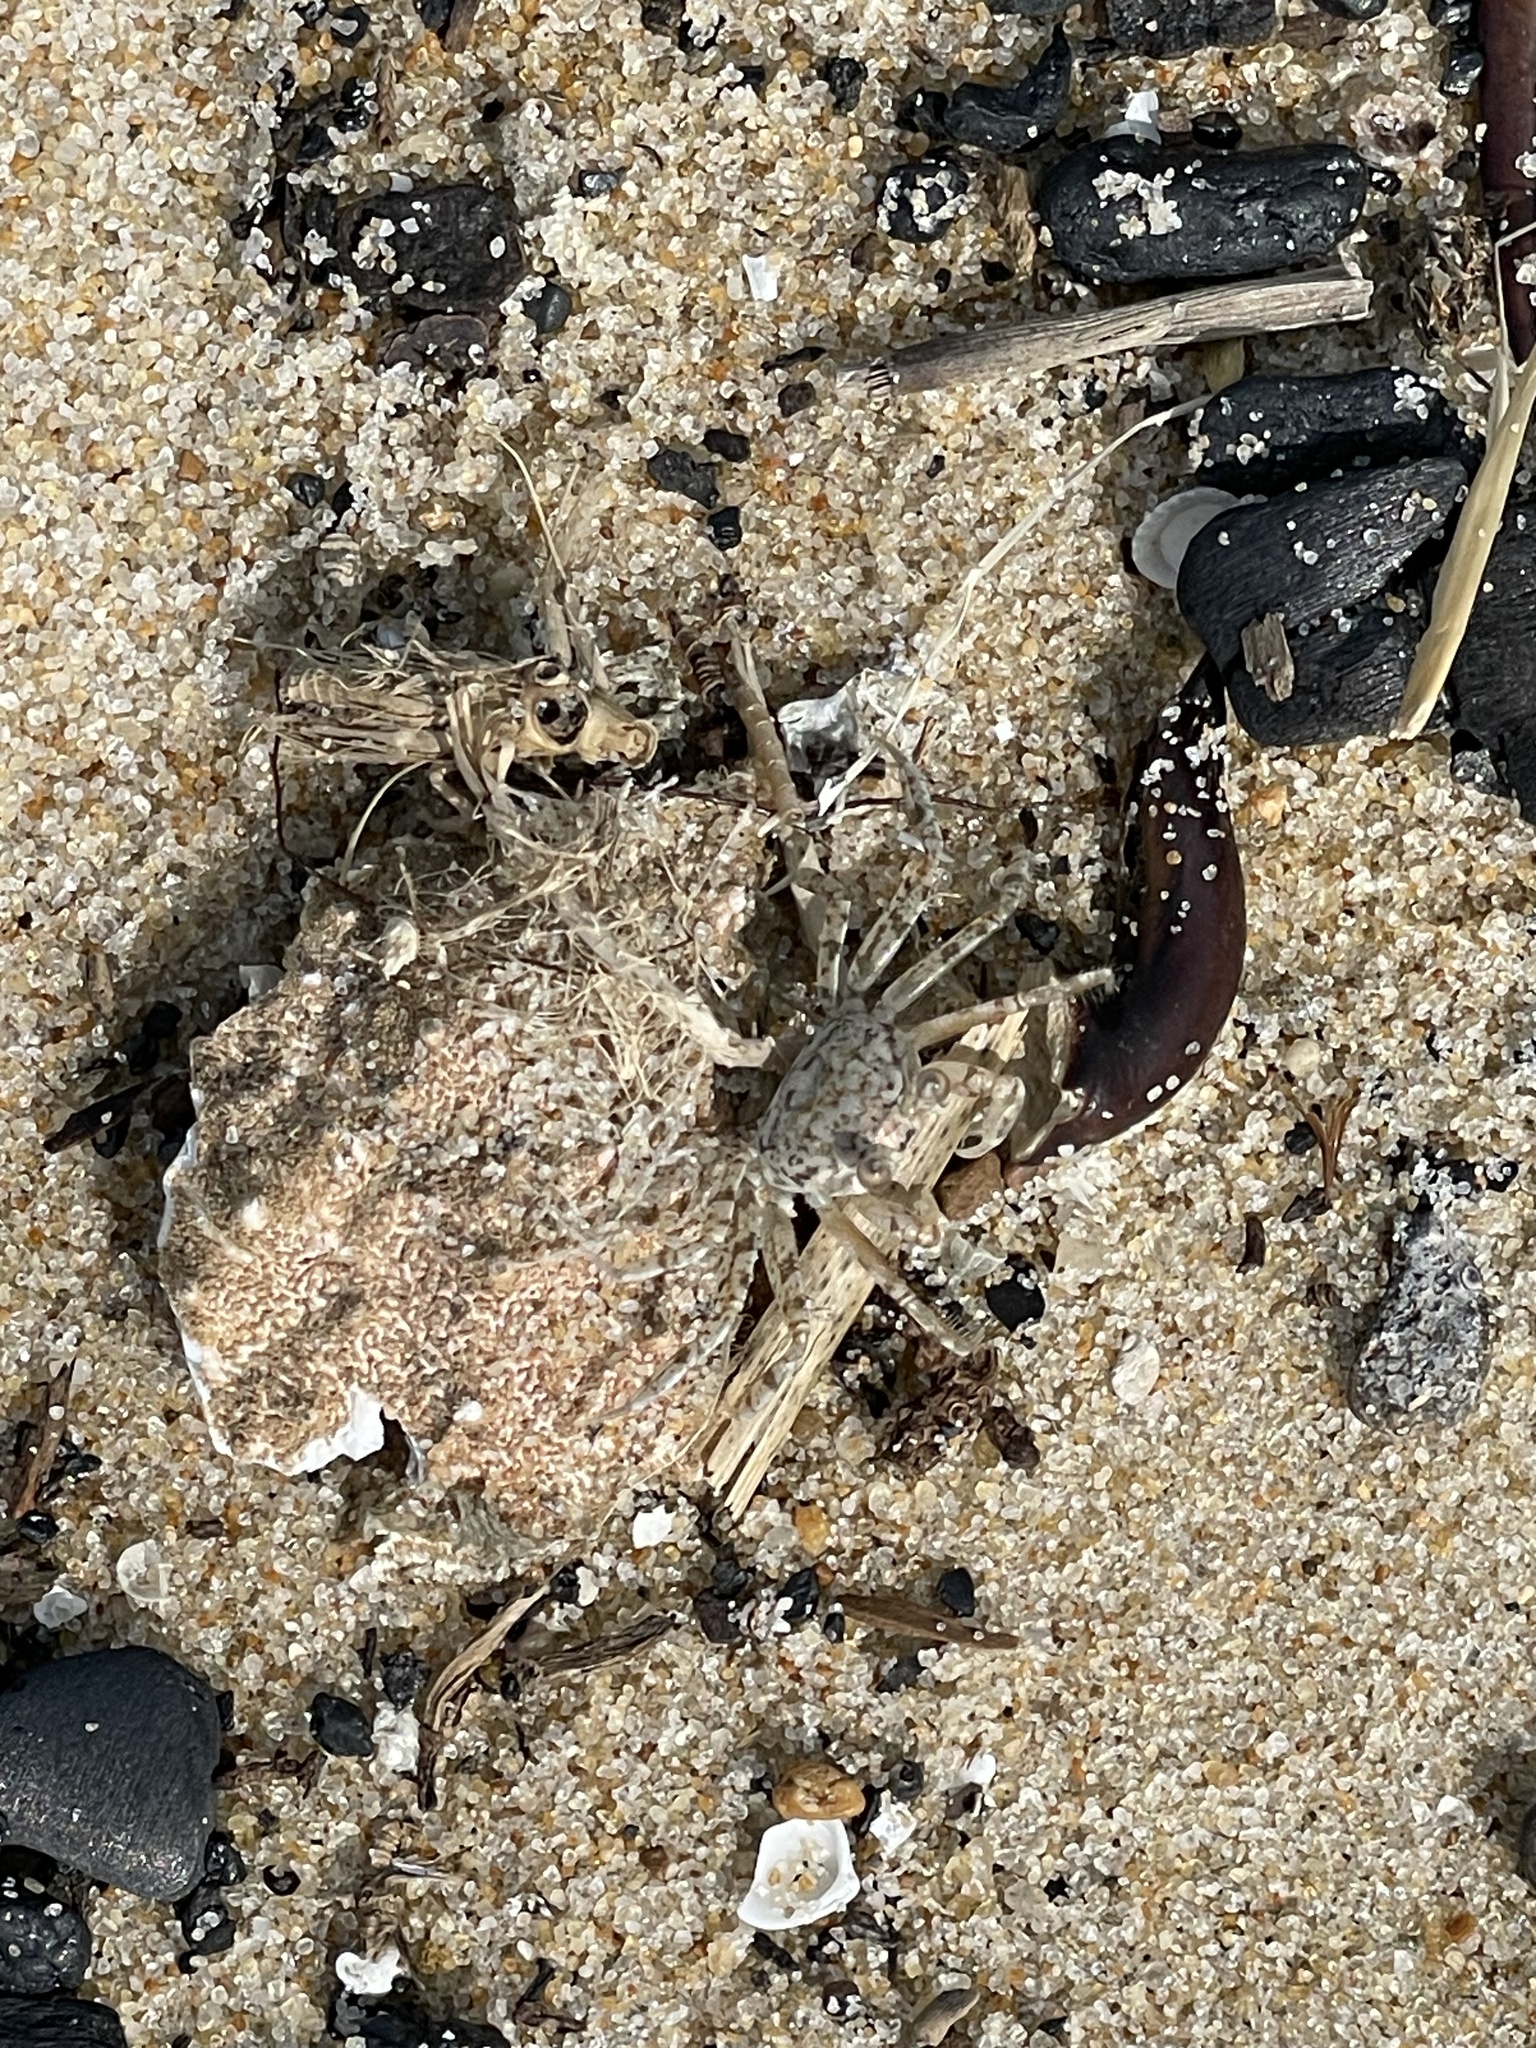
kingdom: Animalia
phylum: Arthropoda
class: Malacostraca
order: Decapoda
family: Ocypodidae
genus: Ocypode
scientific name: Ocypode quadrata
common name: Ghost crab
